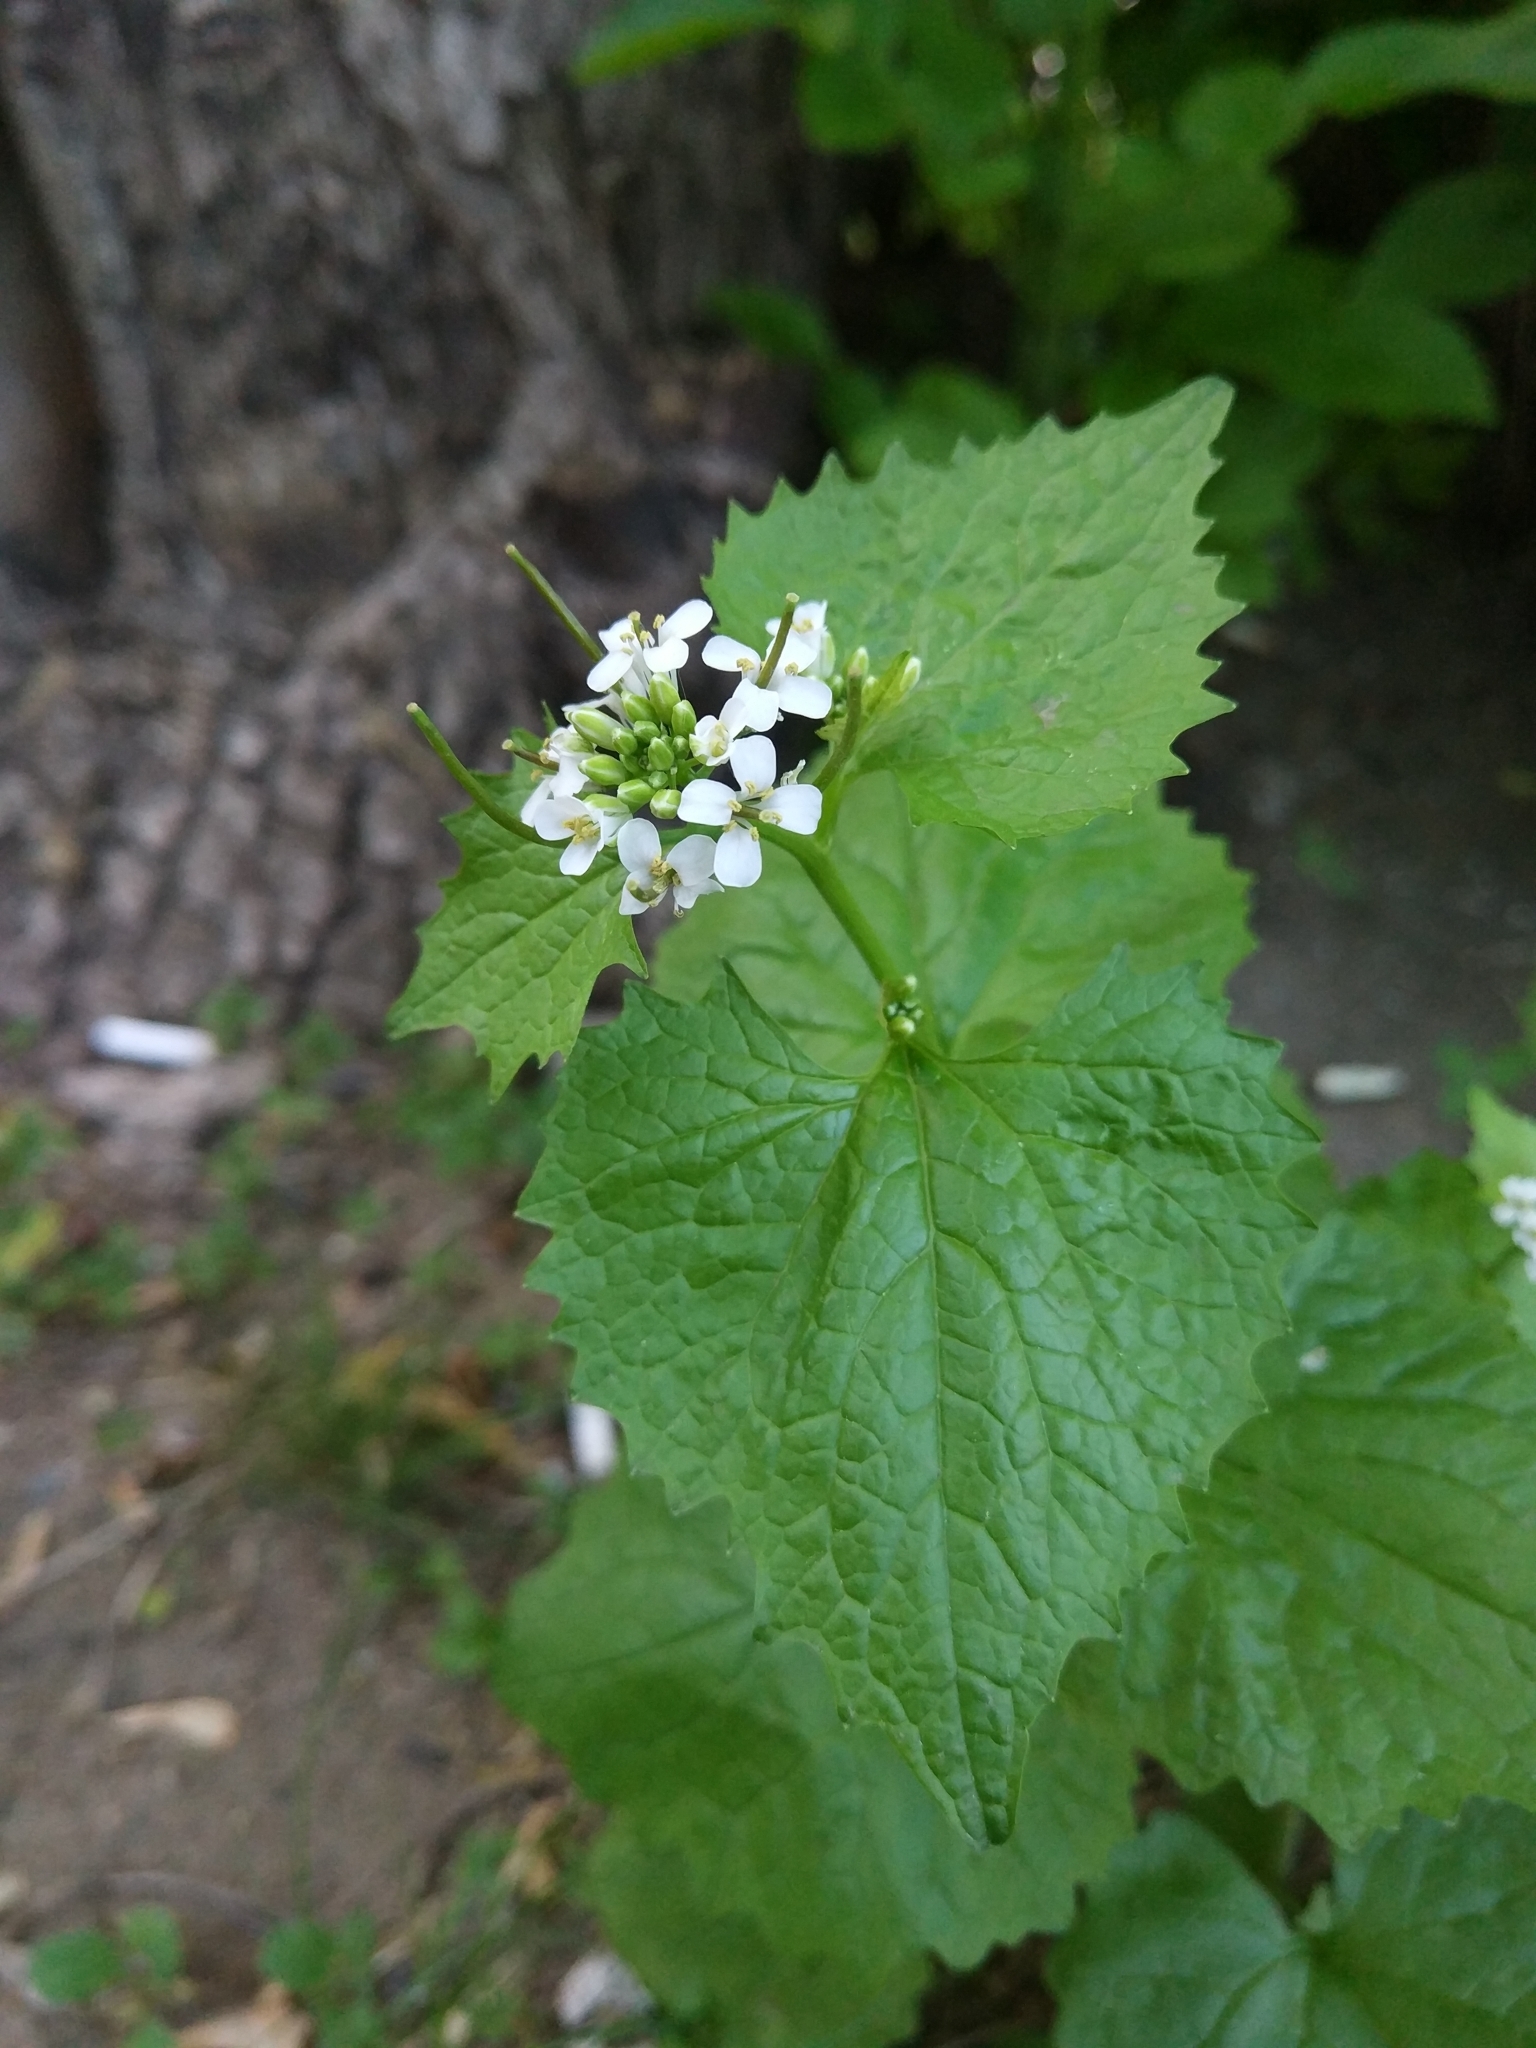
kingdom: Plantae
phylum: Tracheophyta
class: Magnoliopsida
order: Brassicales
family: Brassicaceae
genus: Alliaria
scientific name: Alliaria petiolata
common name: Garlic mustard
